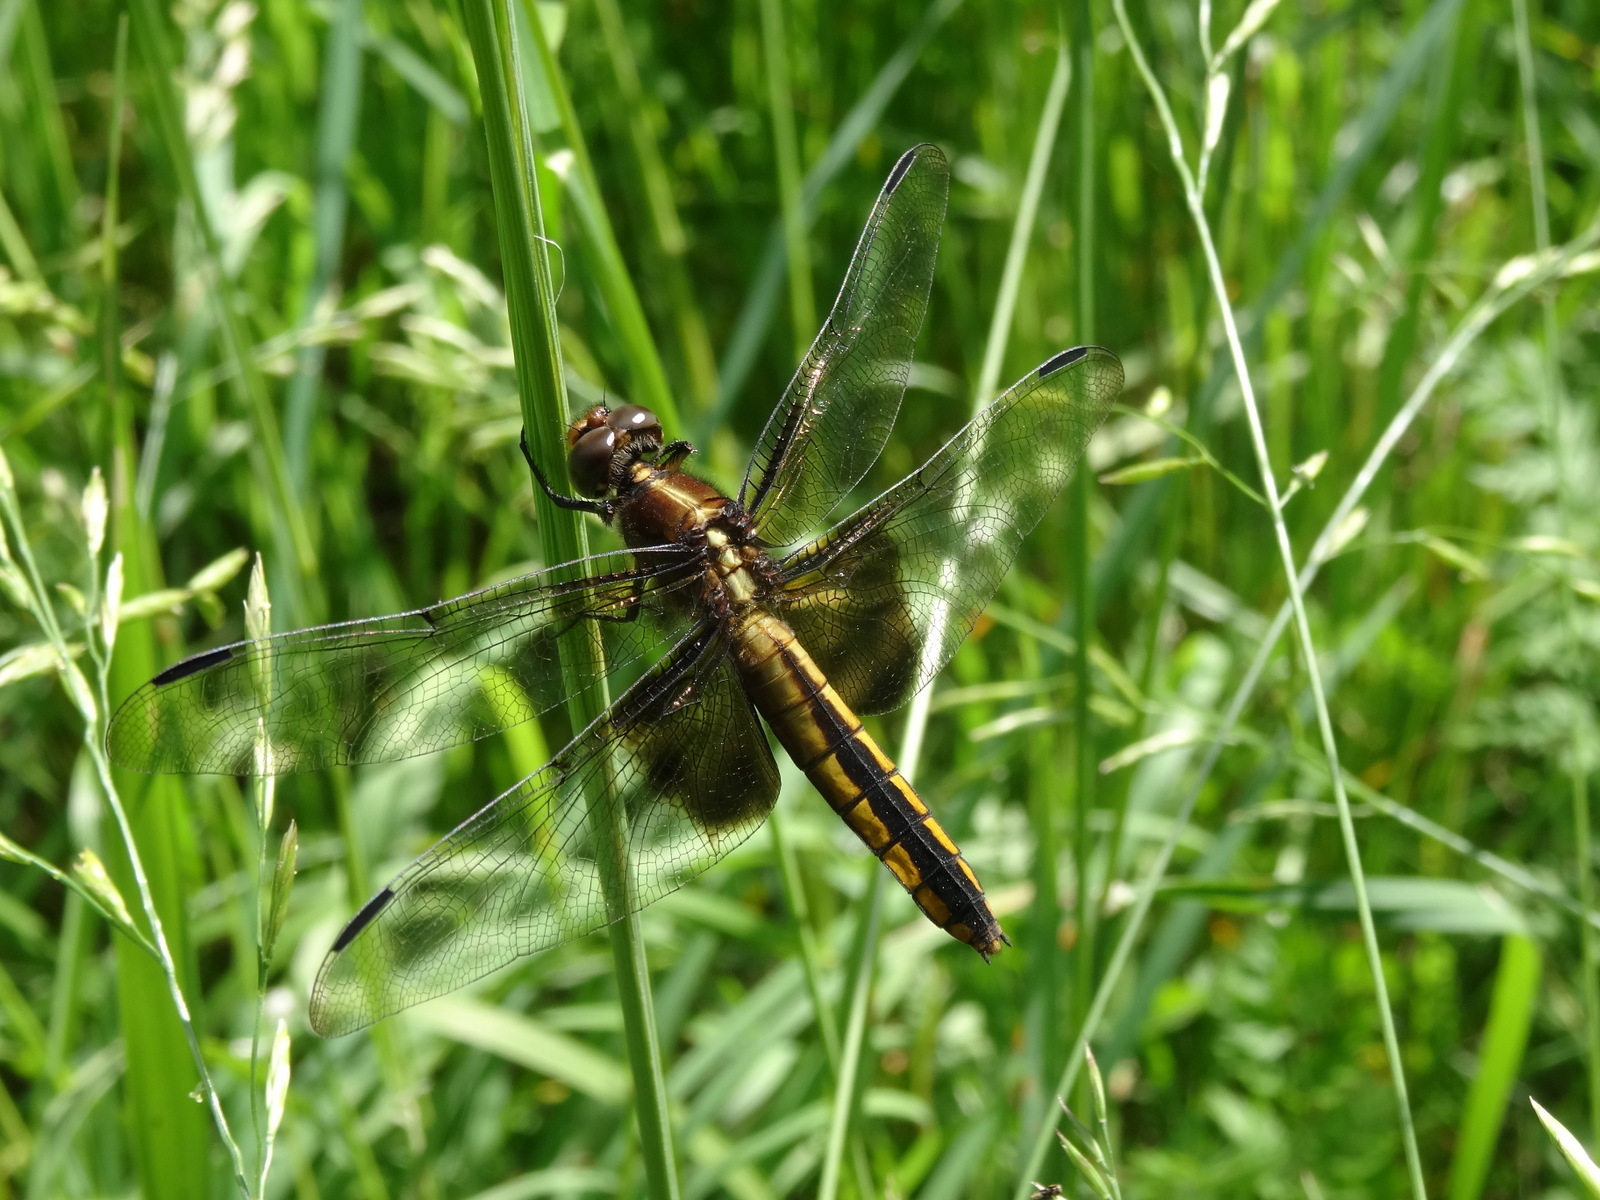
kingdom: Animalia
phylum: Arthropoda
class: Insecta
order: Odonata
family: Libellulidae
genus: Libellula
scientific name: Libellula luctuosa
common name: Widow skimmer
